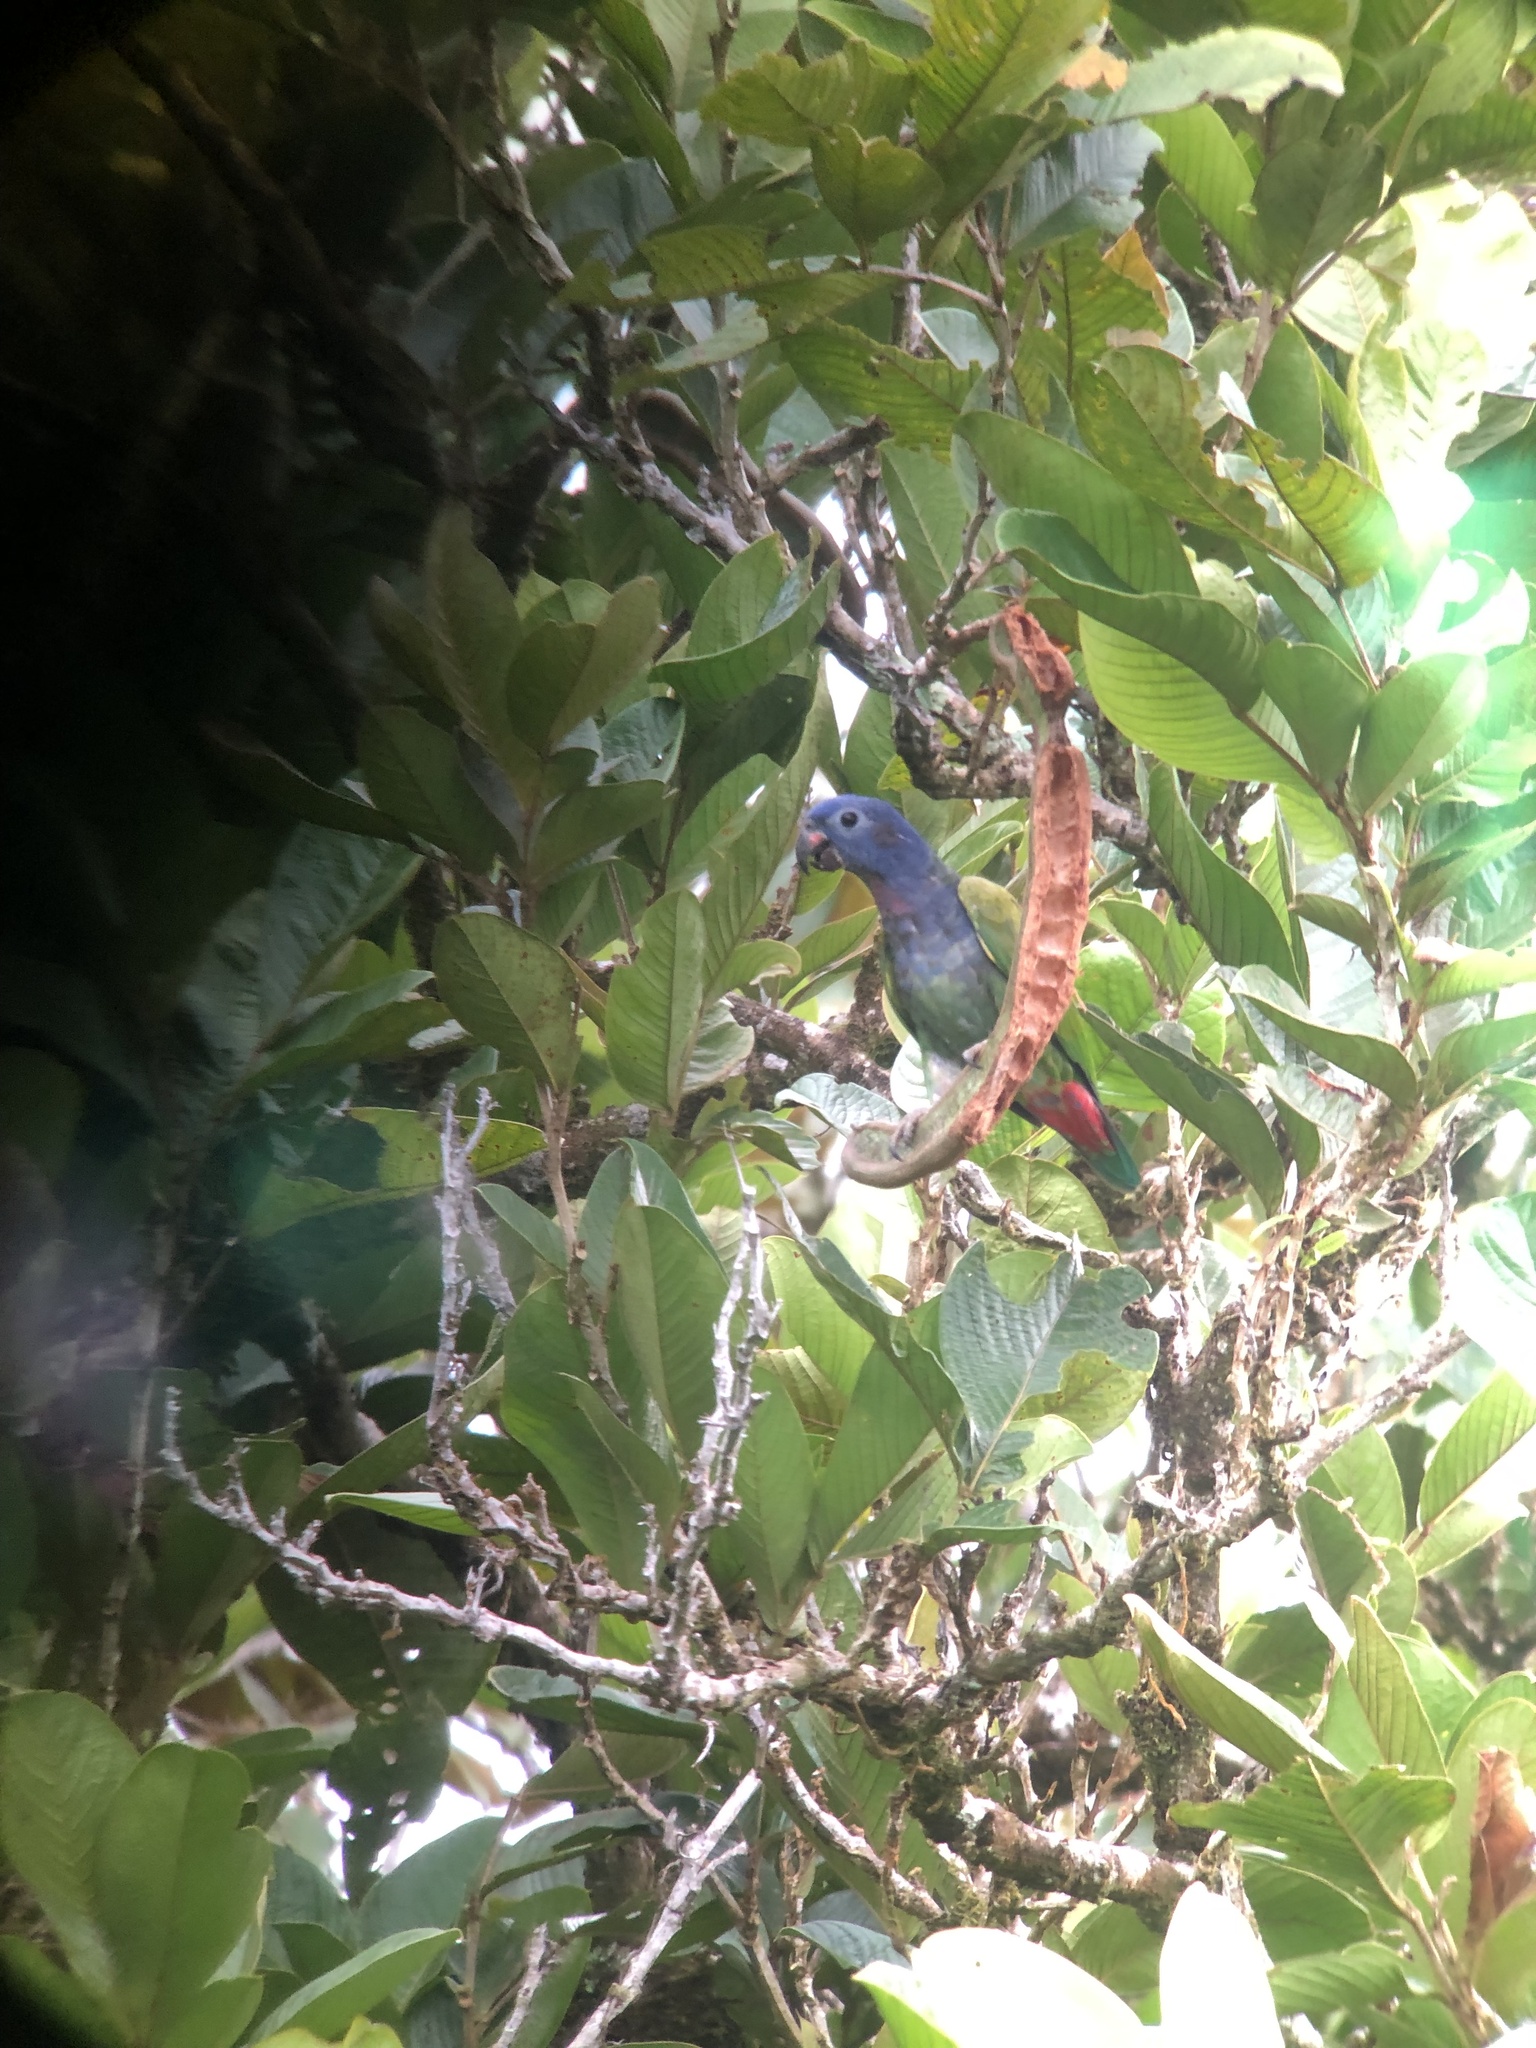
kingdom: Animalia
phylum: Chordata
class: Aves
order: Psittaciformes
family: Psittacidae
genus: Pionus
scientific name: Pionus menstruus
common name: Blue-headed parrot
